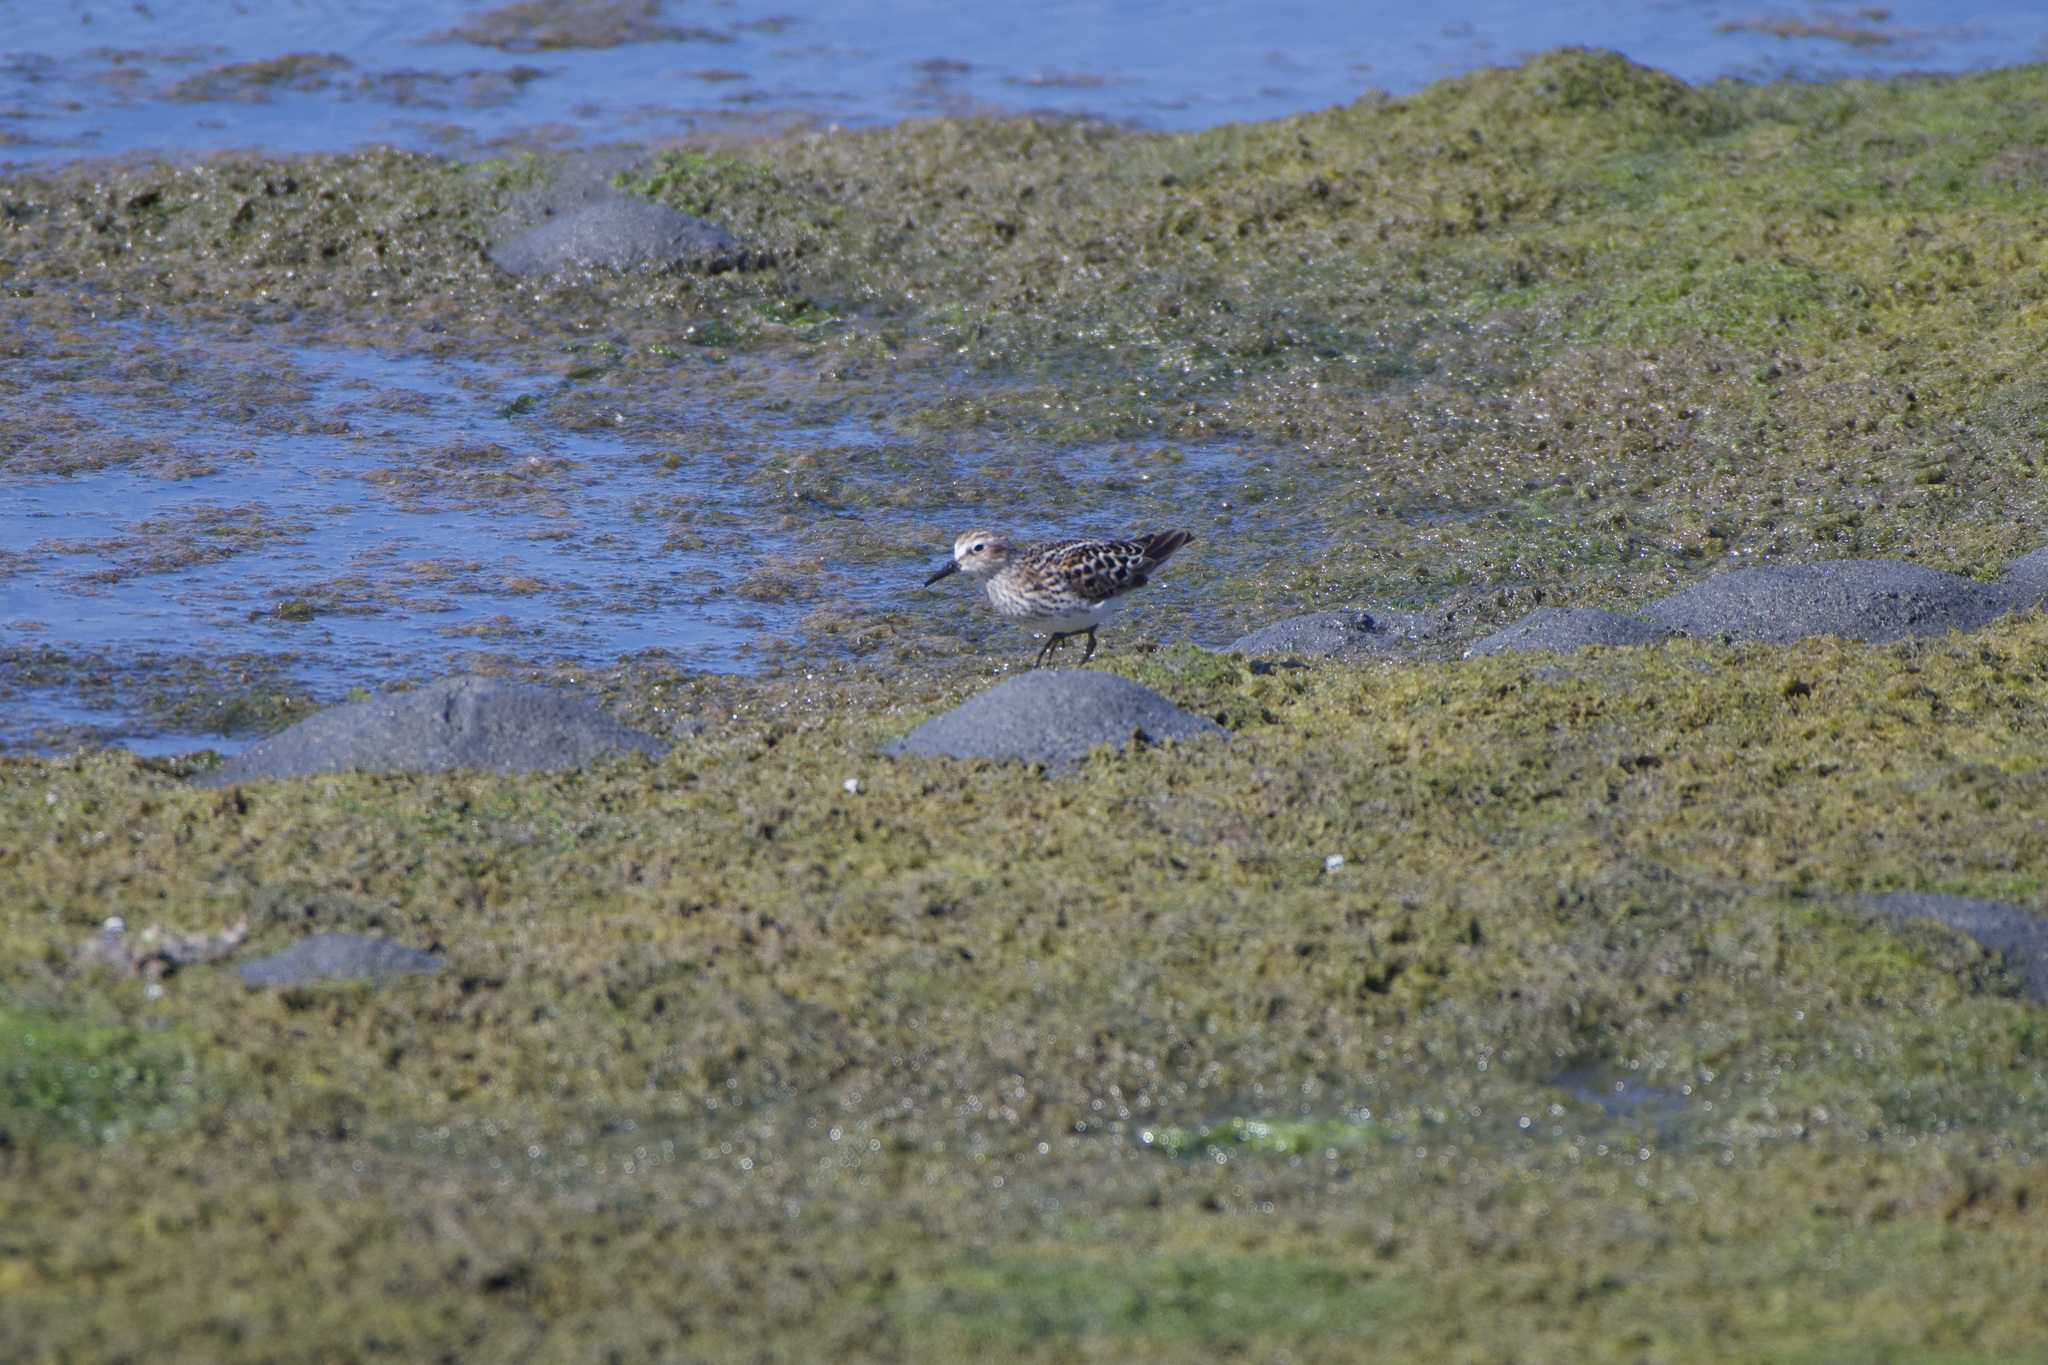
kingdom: Animalia
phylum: Chordata
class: Aves
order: Charadriiformes
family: Scolopacidae
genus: Calidris
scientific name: Calidris minutilla
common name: Least sandpiper
